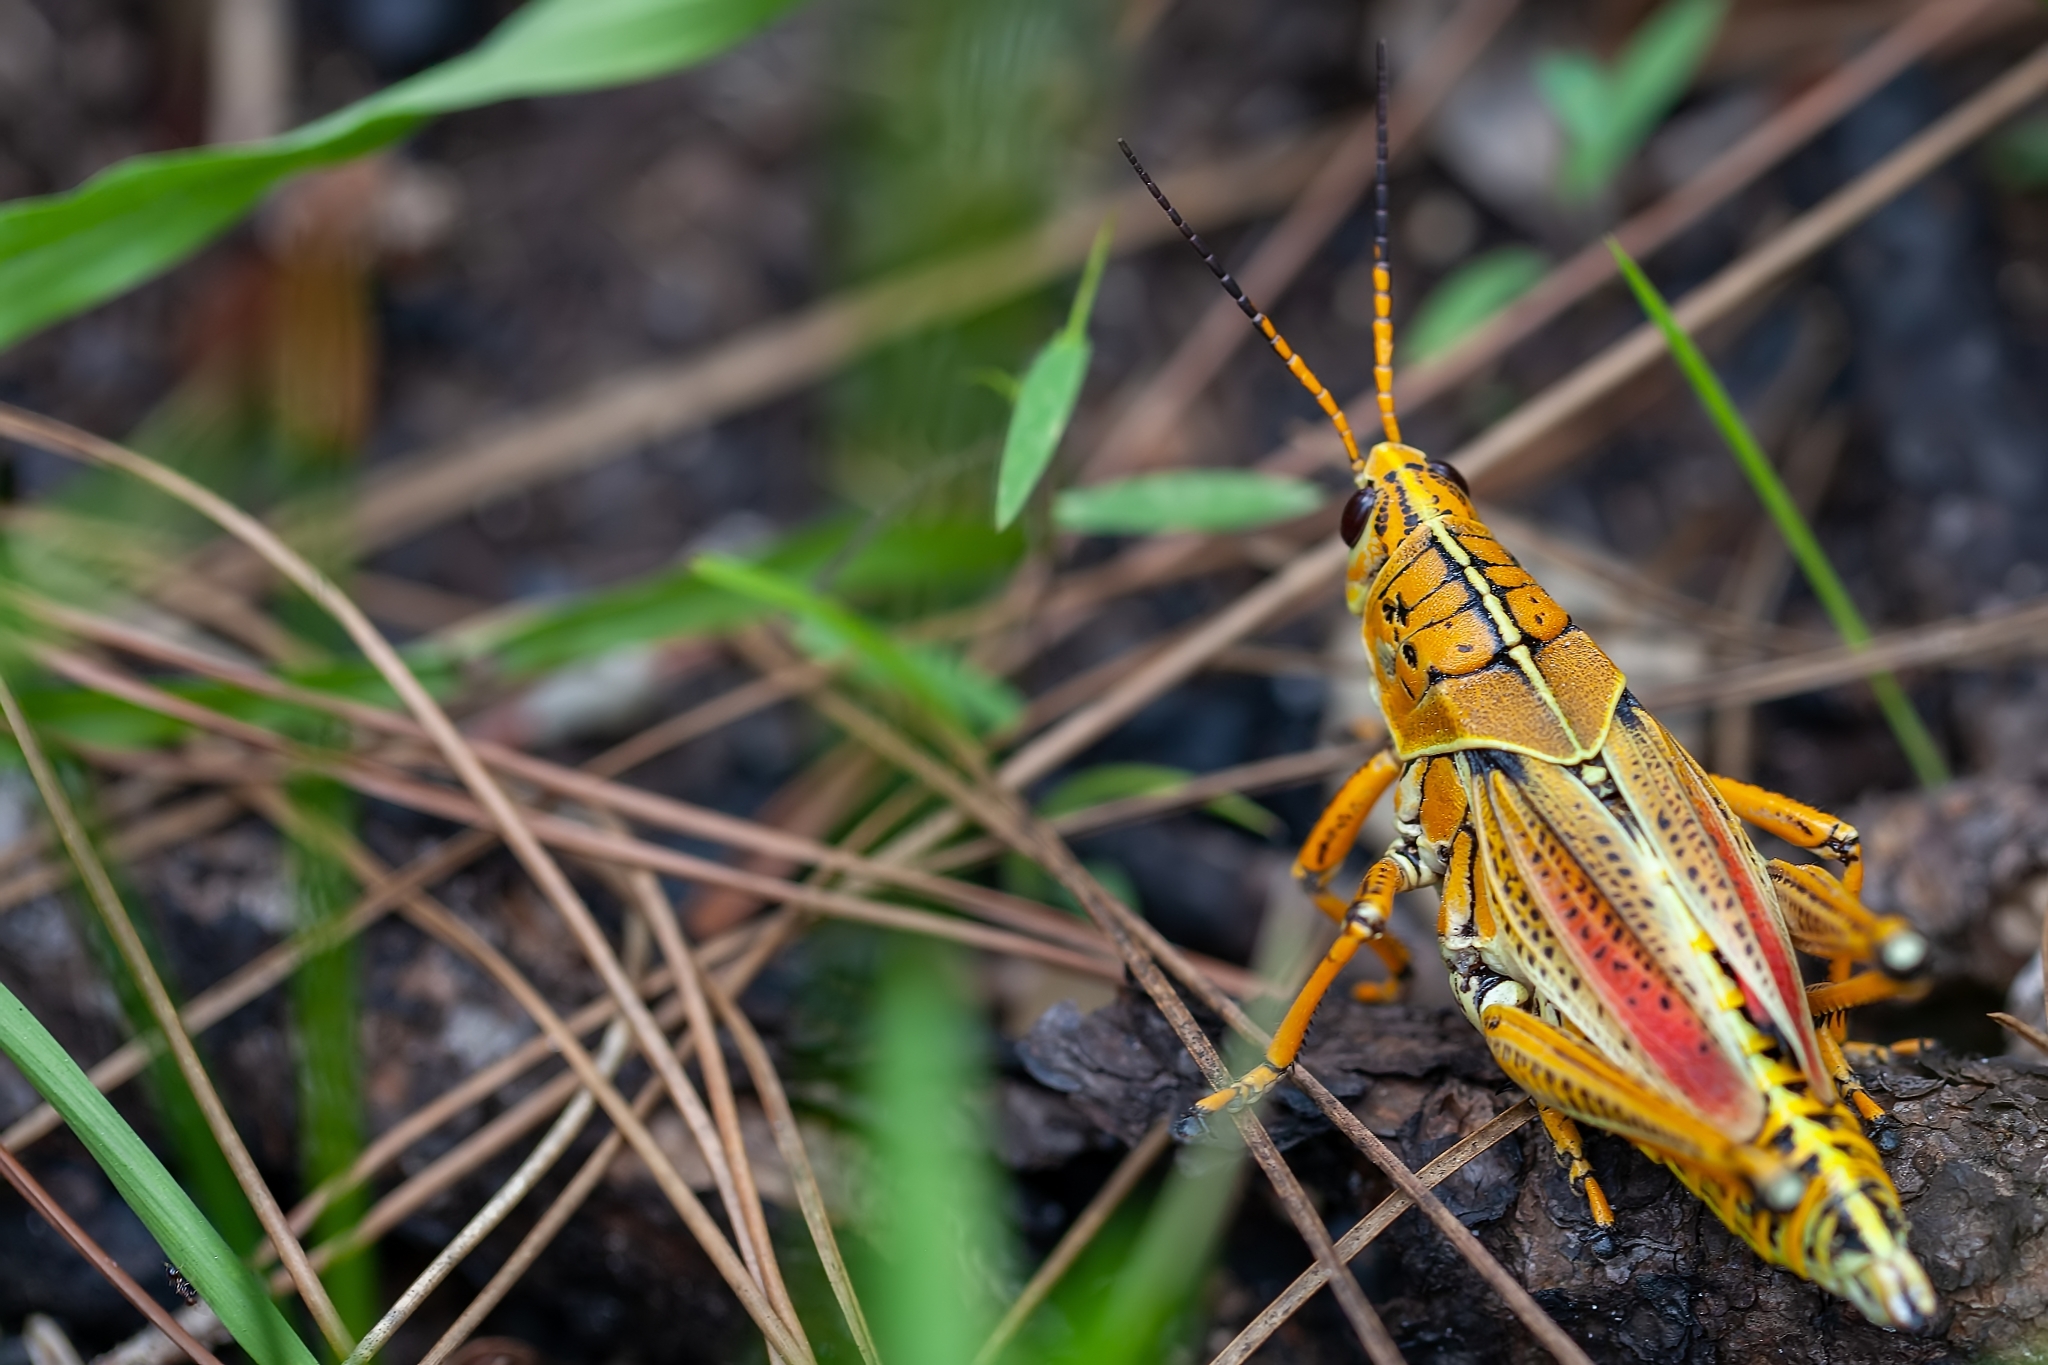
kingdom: Animalia
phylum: Arthropoda
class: Insecta
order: Orthoptera
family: Romaleidae
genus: Romalea
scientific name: Romalea microptera
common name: Eastern lubber grasshopper
